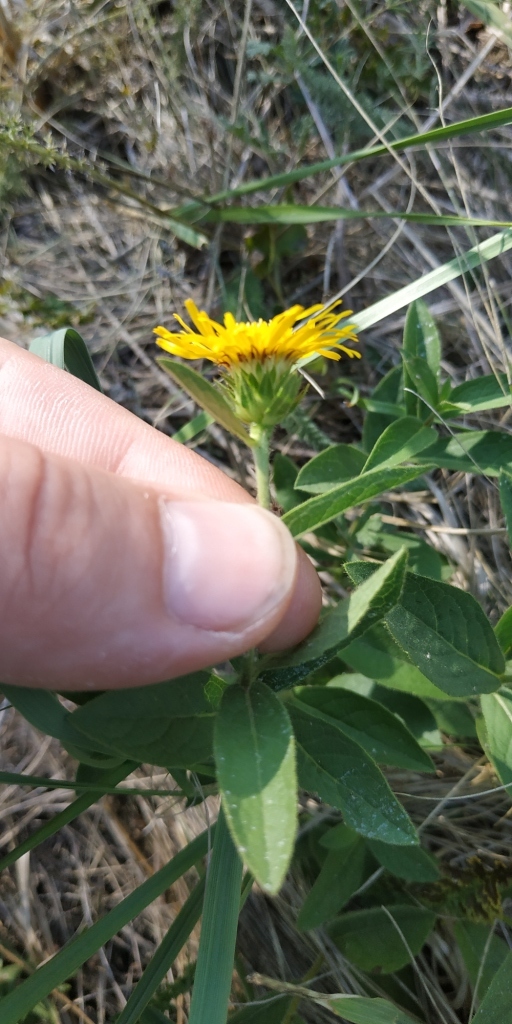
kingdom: Plantae
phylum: Tracheophyta
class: Magnoliopsida
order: Asterales
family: Asteraceae
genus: Pentanema
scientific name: Pentanema hirtum
